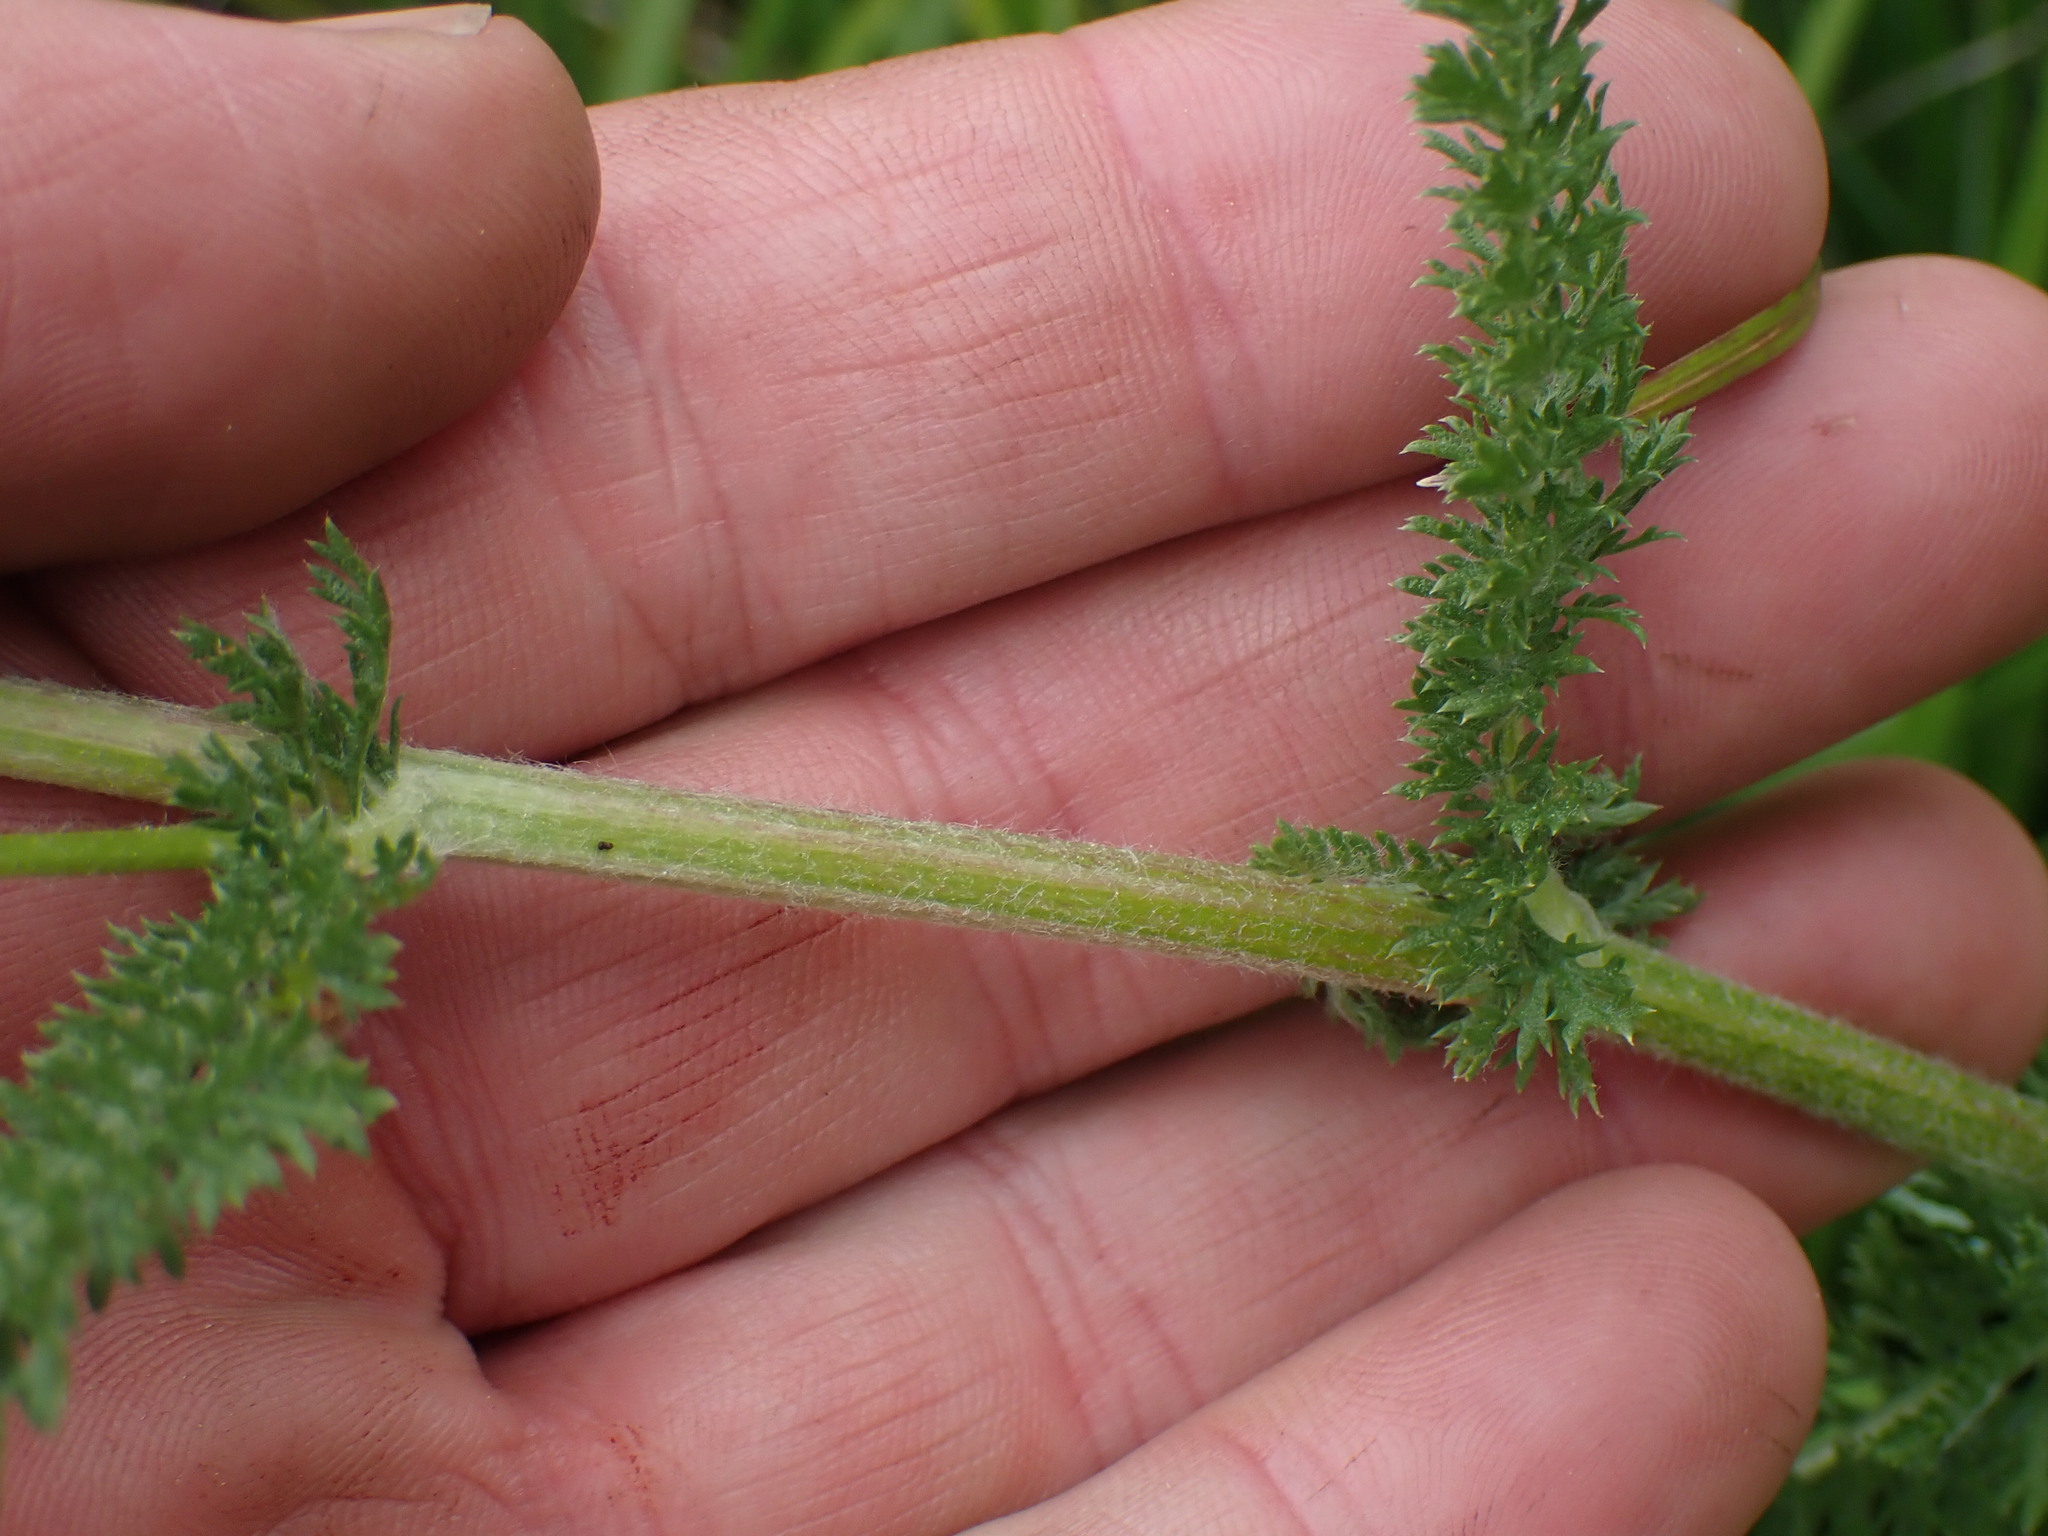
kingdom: Plantae
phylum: Tracheophyta
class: Magnoliopsida
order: Asterales
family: Asteraceae
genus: Achillea
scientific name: Achillea millefolium
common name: Yarrow
